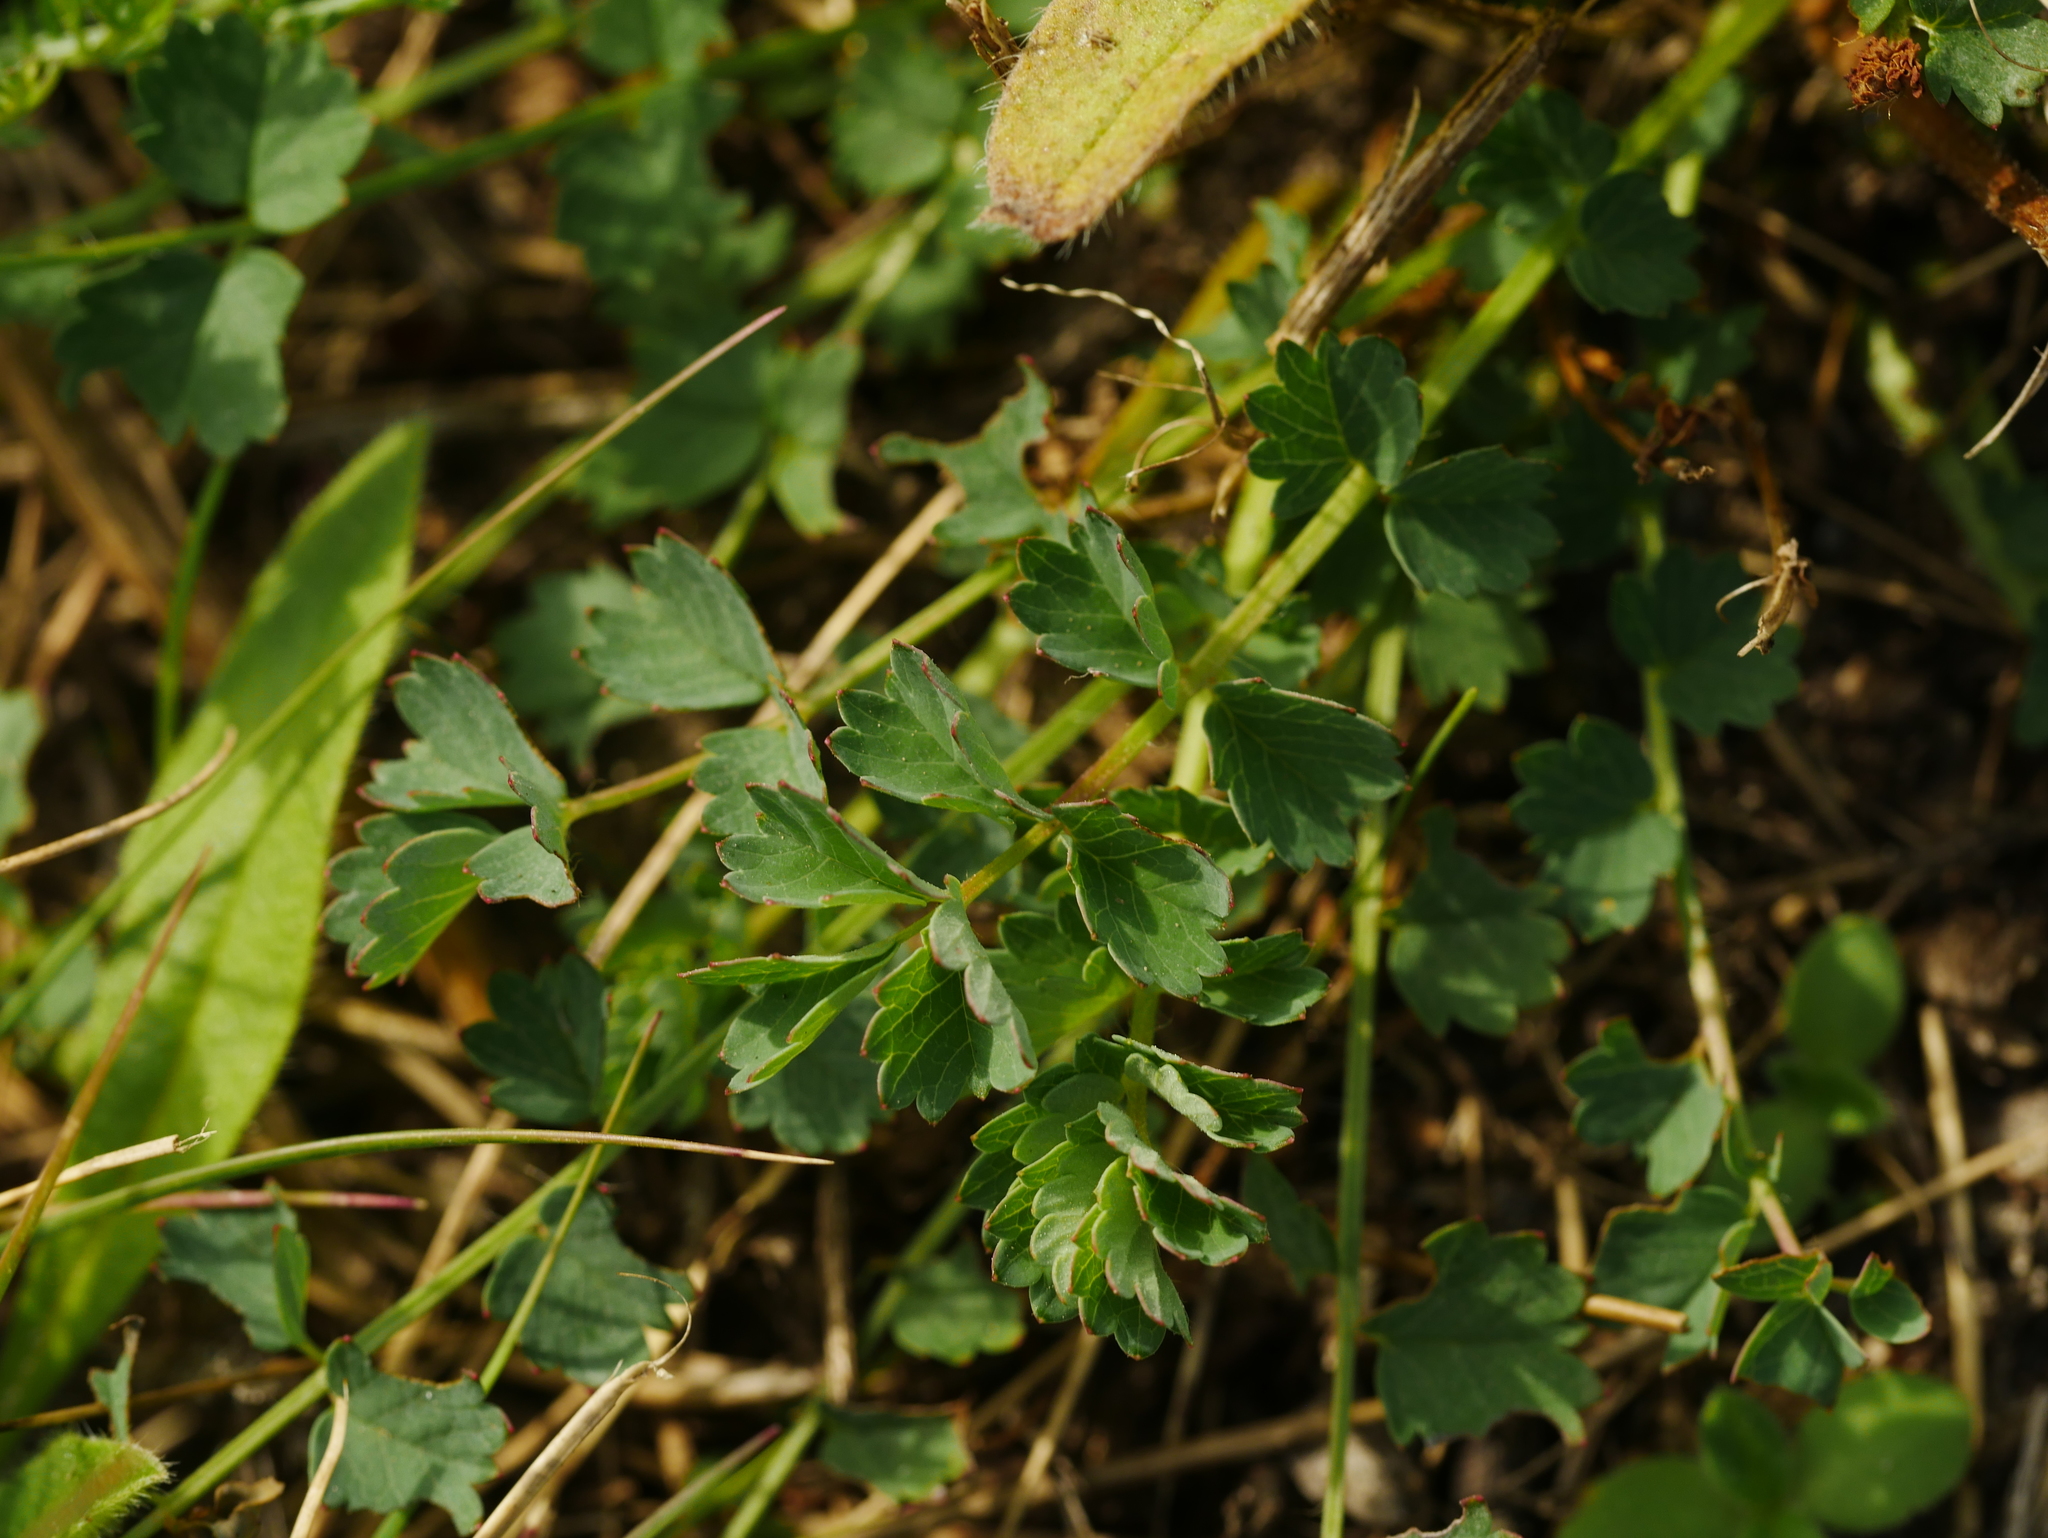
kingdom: Plantae
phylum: Tracheophyta
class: Magnoliopsida
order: Rosales
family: Rosaceae
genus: Poterium
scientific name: Poterium sanguisorba
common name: Salad burnet
